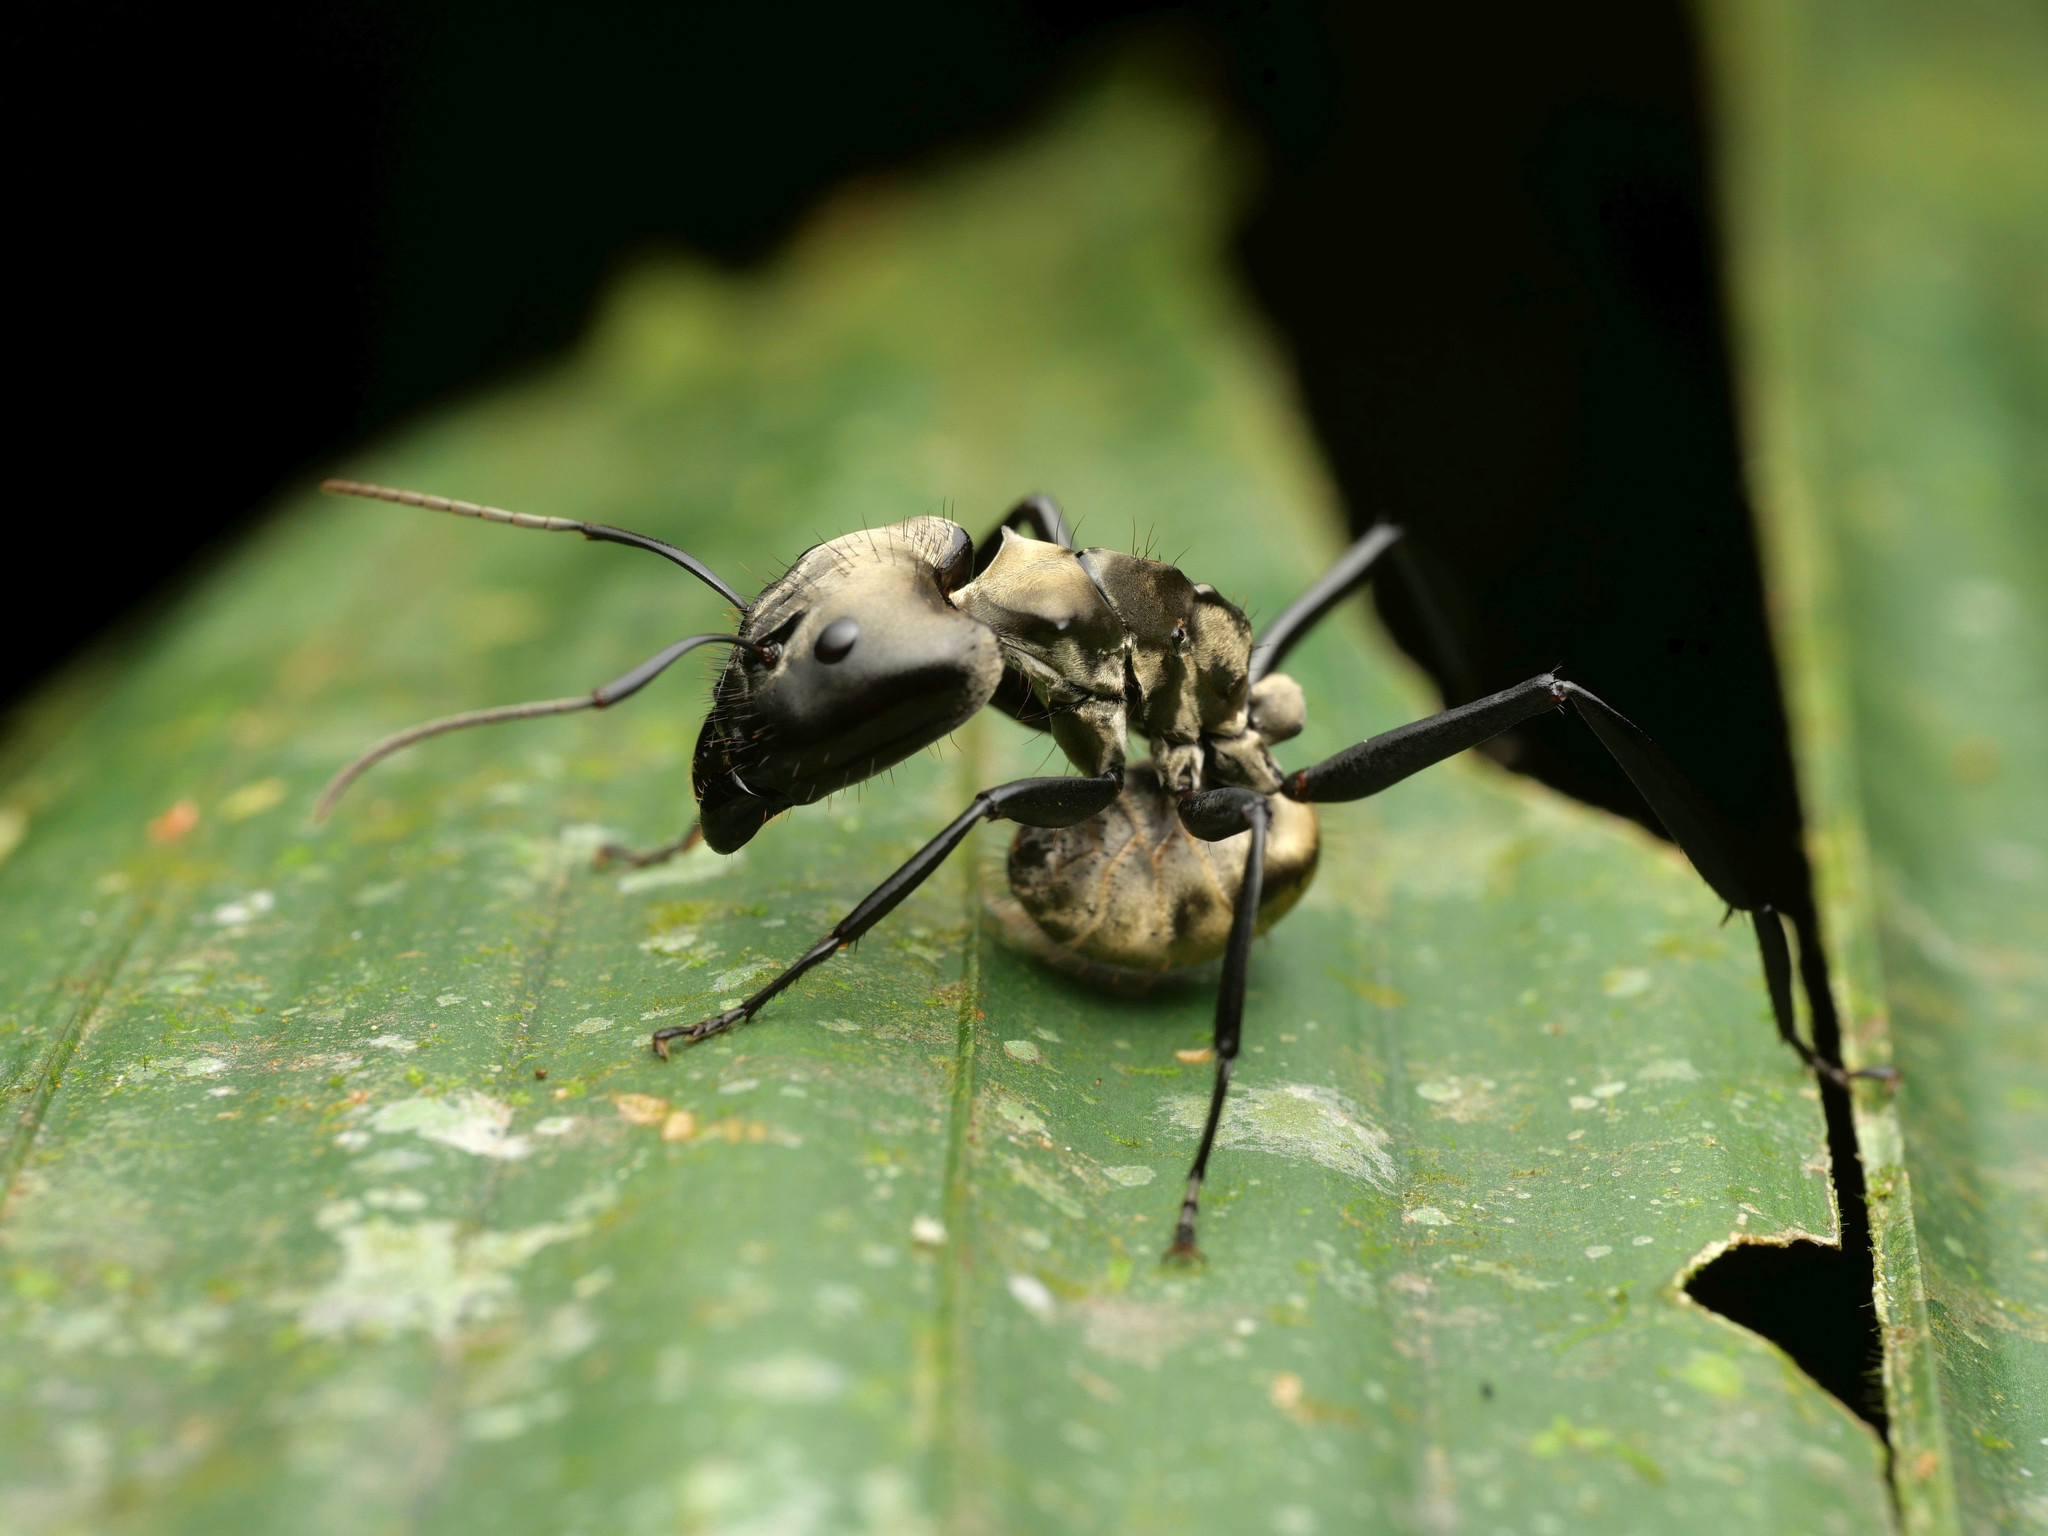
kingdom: Animalia
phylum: Arthropoda
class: Insecta
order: Hymenoptera
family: Formicidae
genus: Camponotus
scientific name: Camponotus sericeiventris
